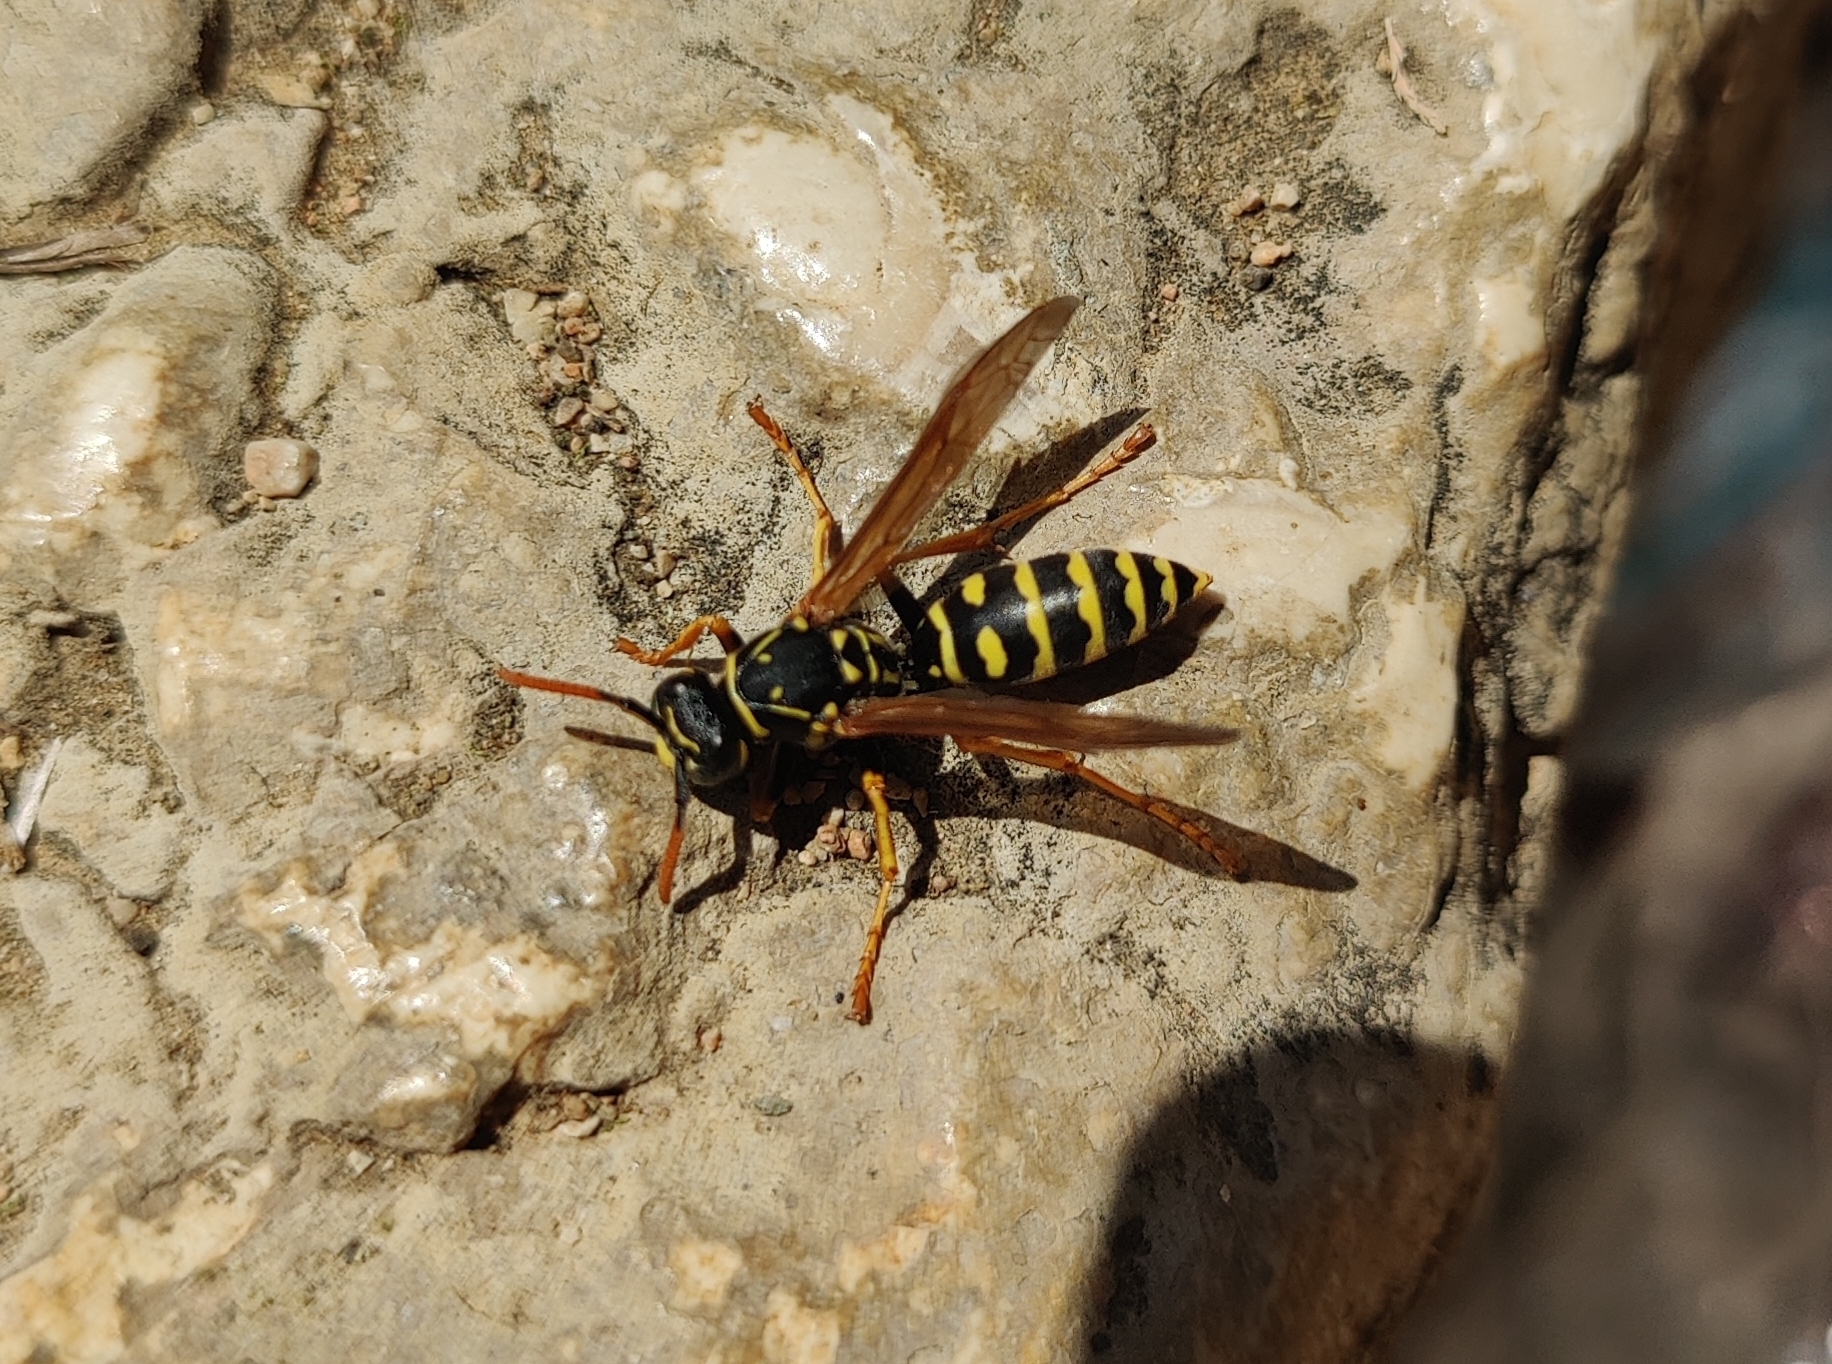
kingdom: Animalia
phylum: Arthropoda
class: Insecta
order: Hymenoptera
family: Eumenidae
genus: Polistes
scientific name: Polistes dominula
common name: Paper wasp
